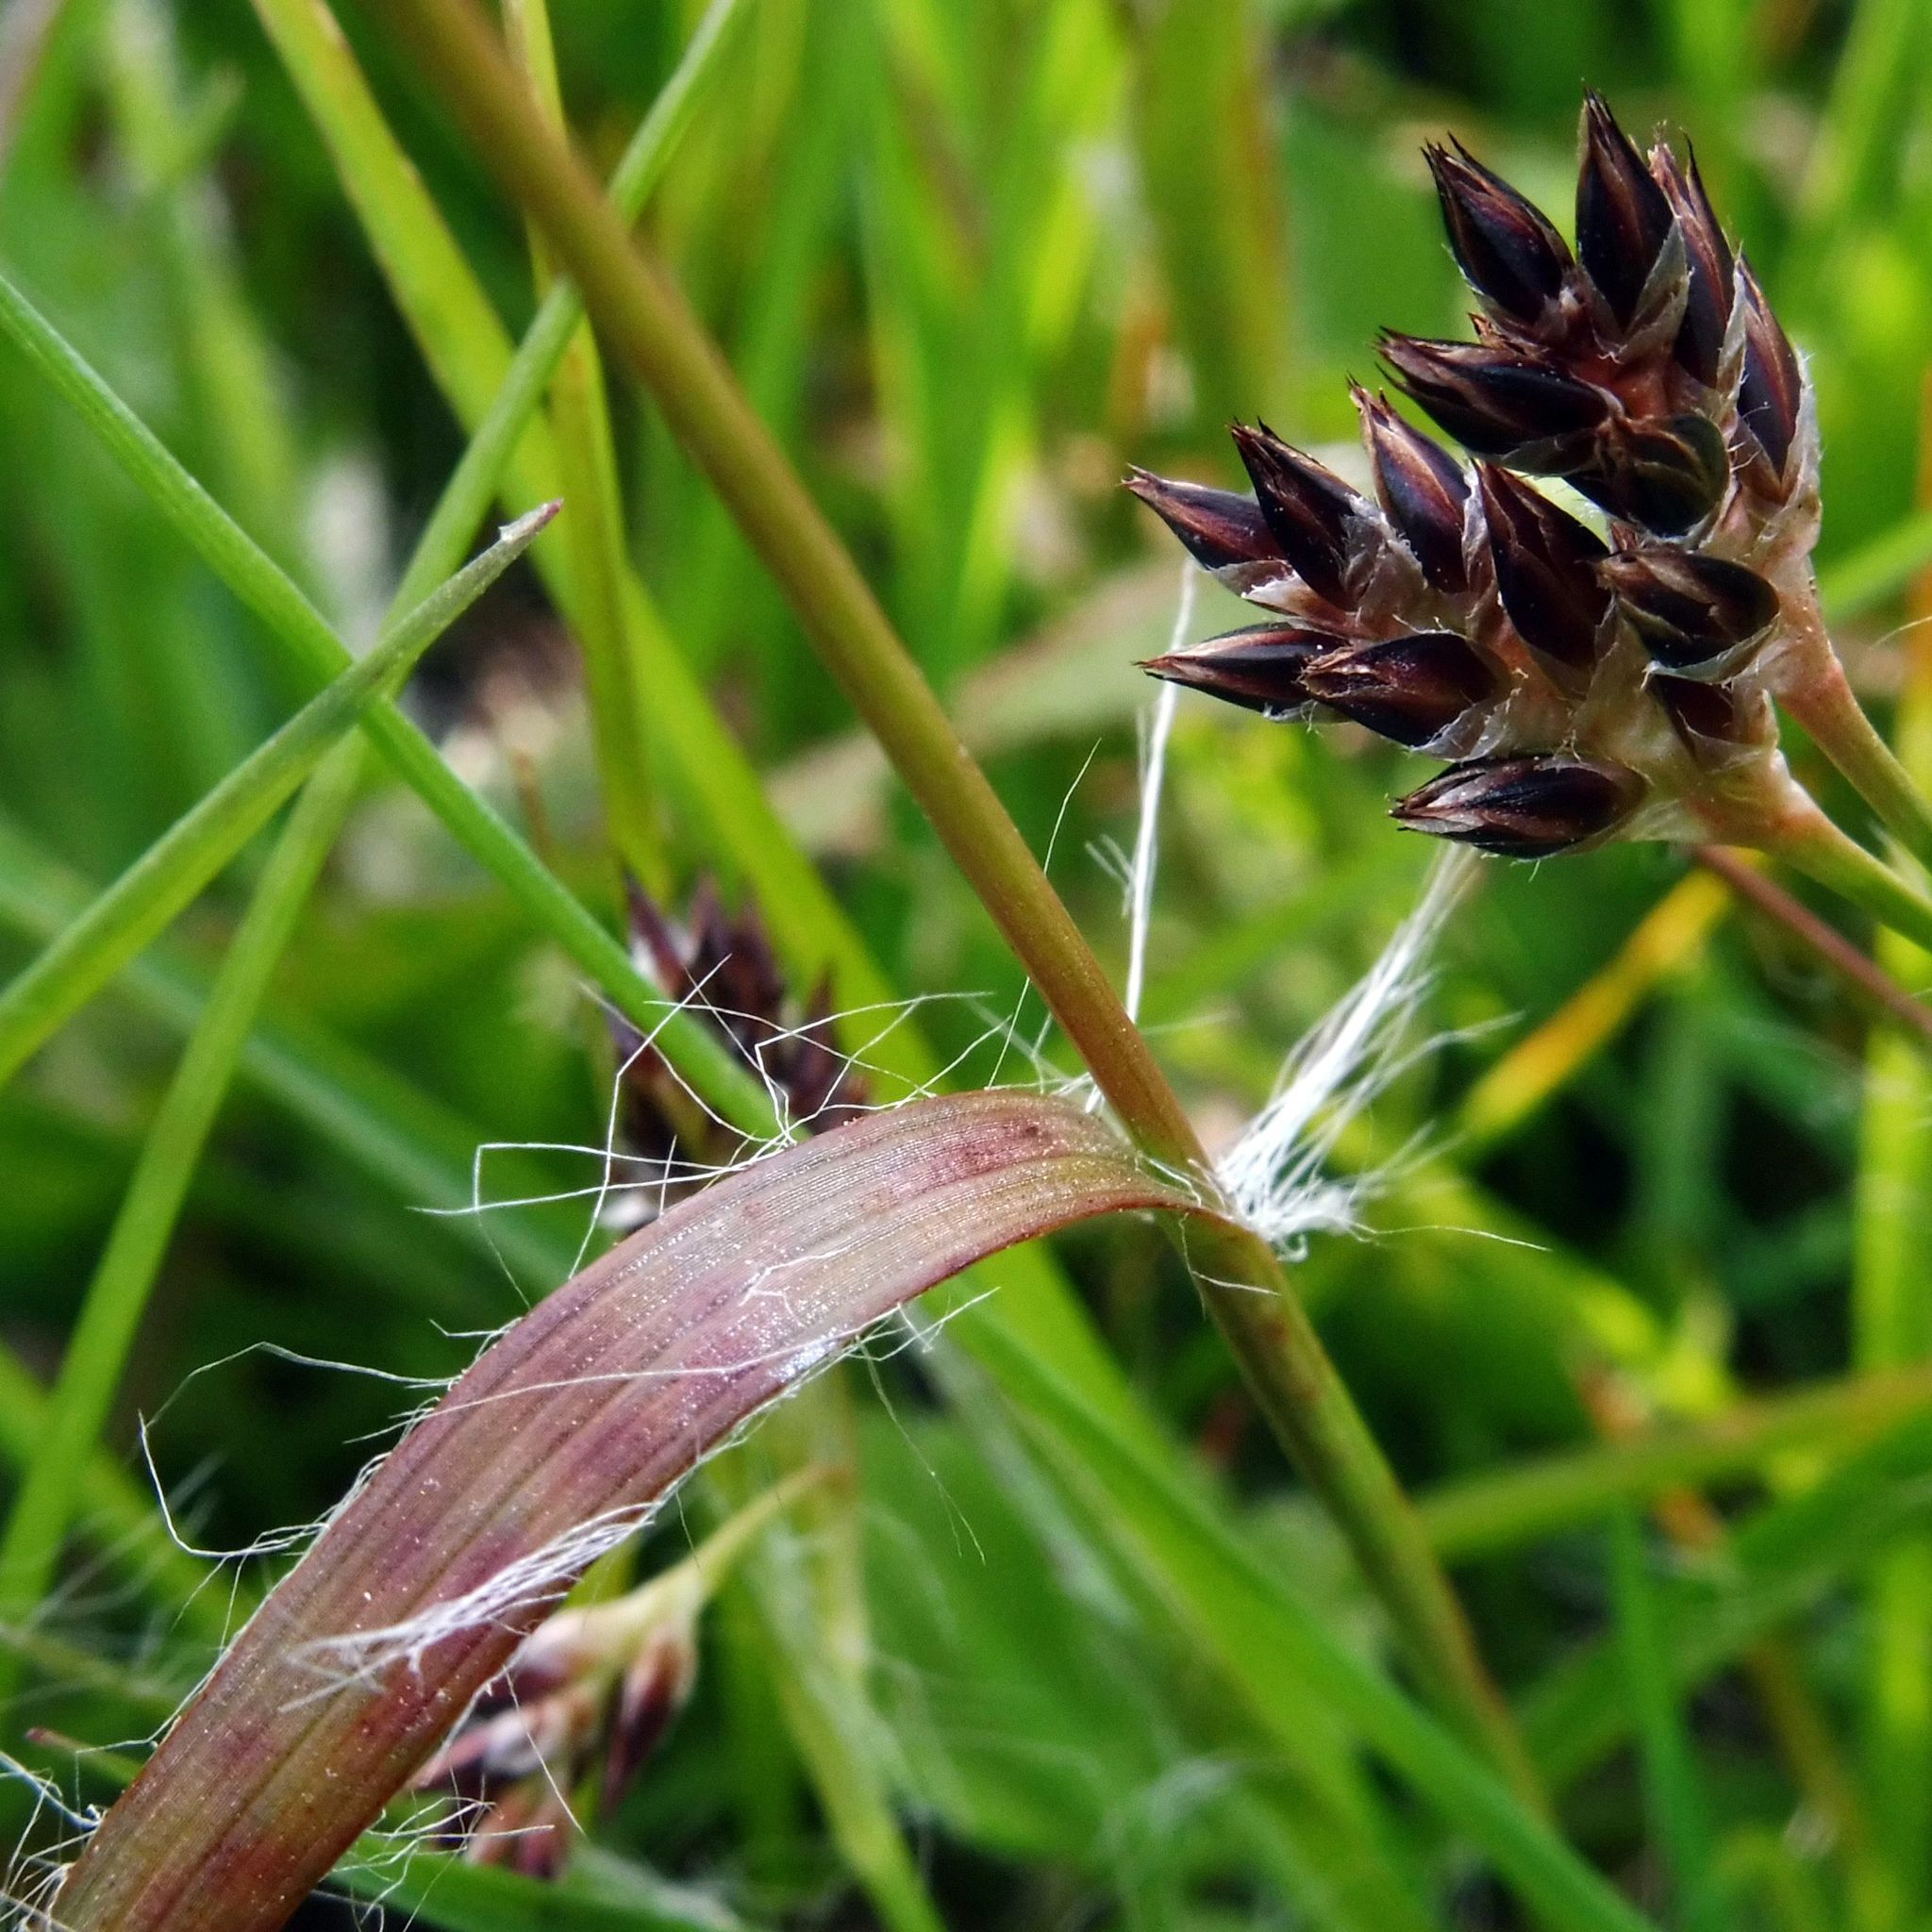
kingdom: Plantae
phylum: Tracheophyta
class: Liliopsida
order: Poales
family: Juncaceae
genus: Luzula
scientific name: Luzula campestris
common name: Field wood-rush
